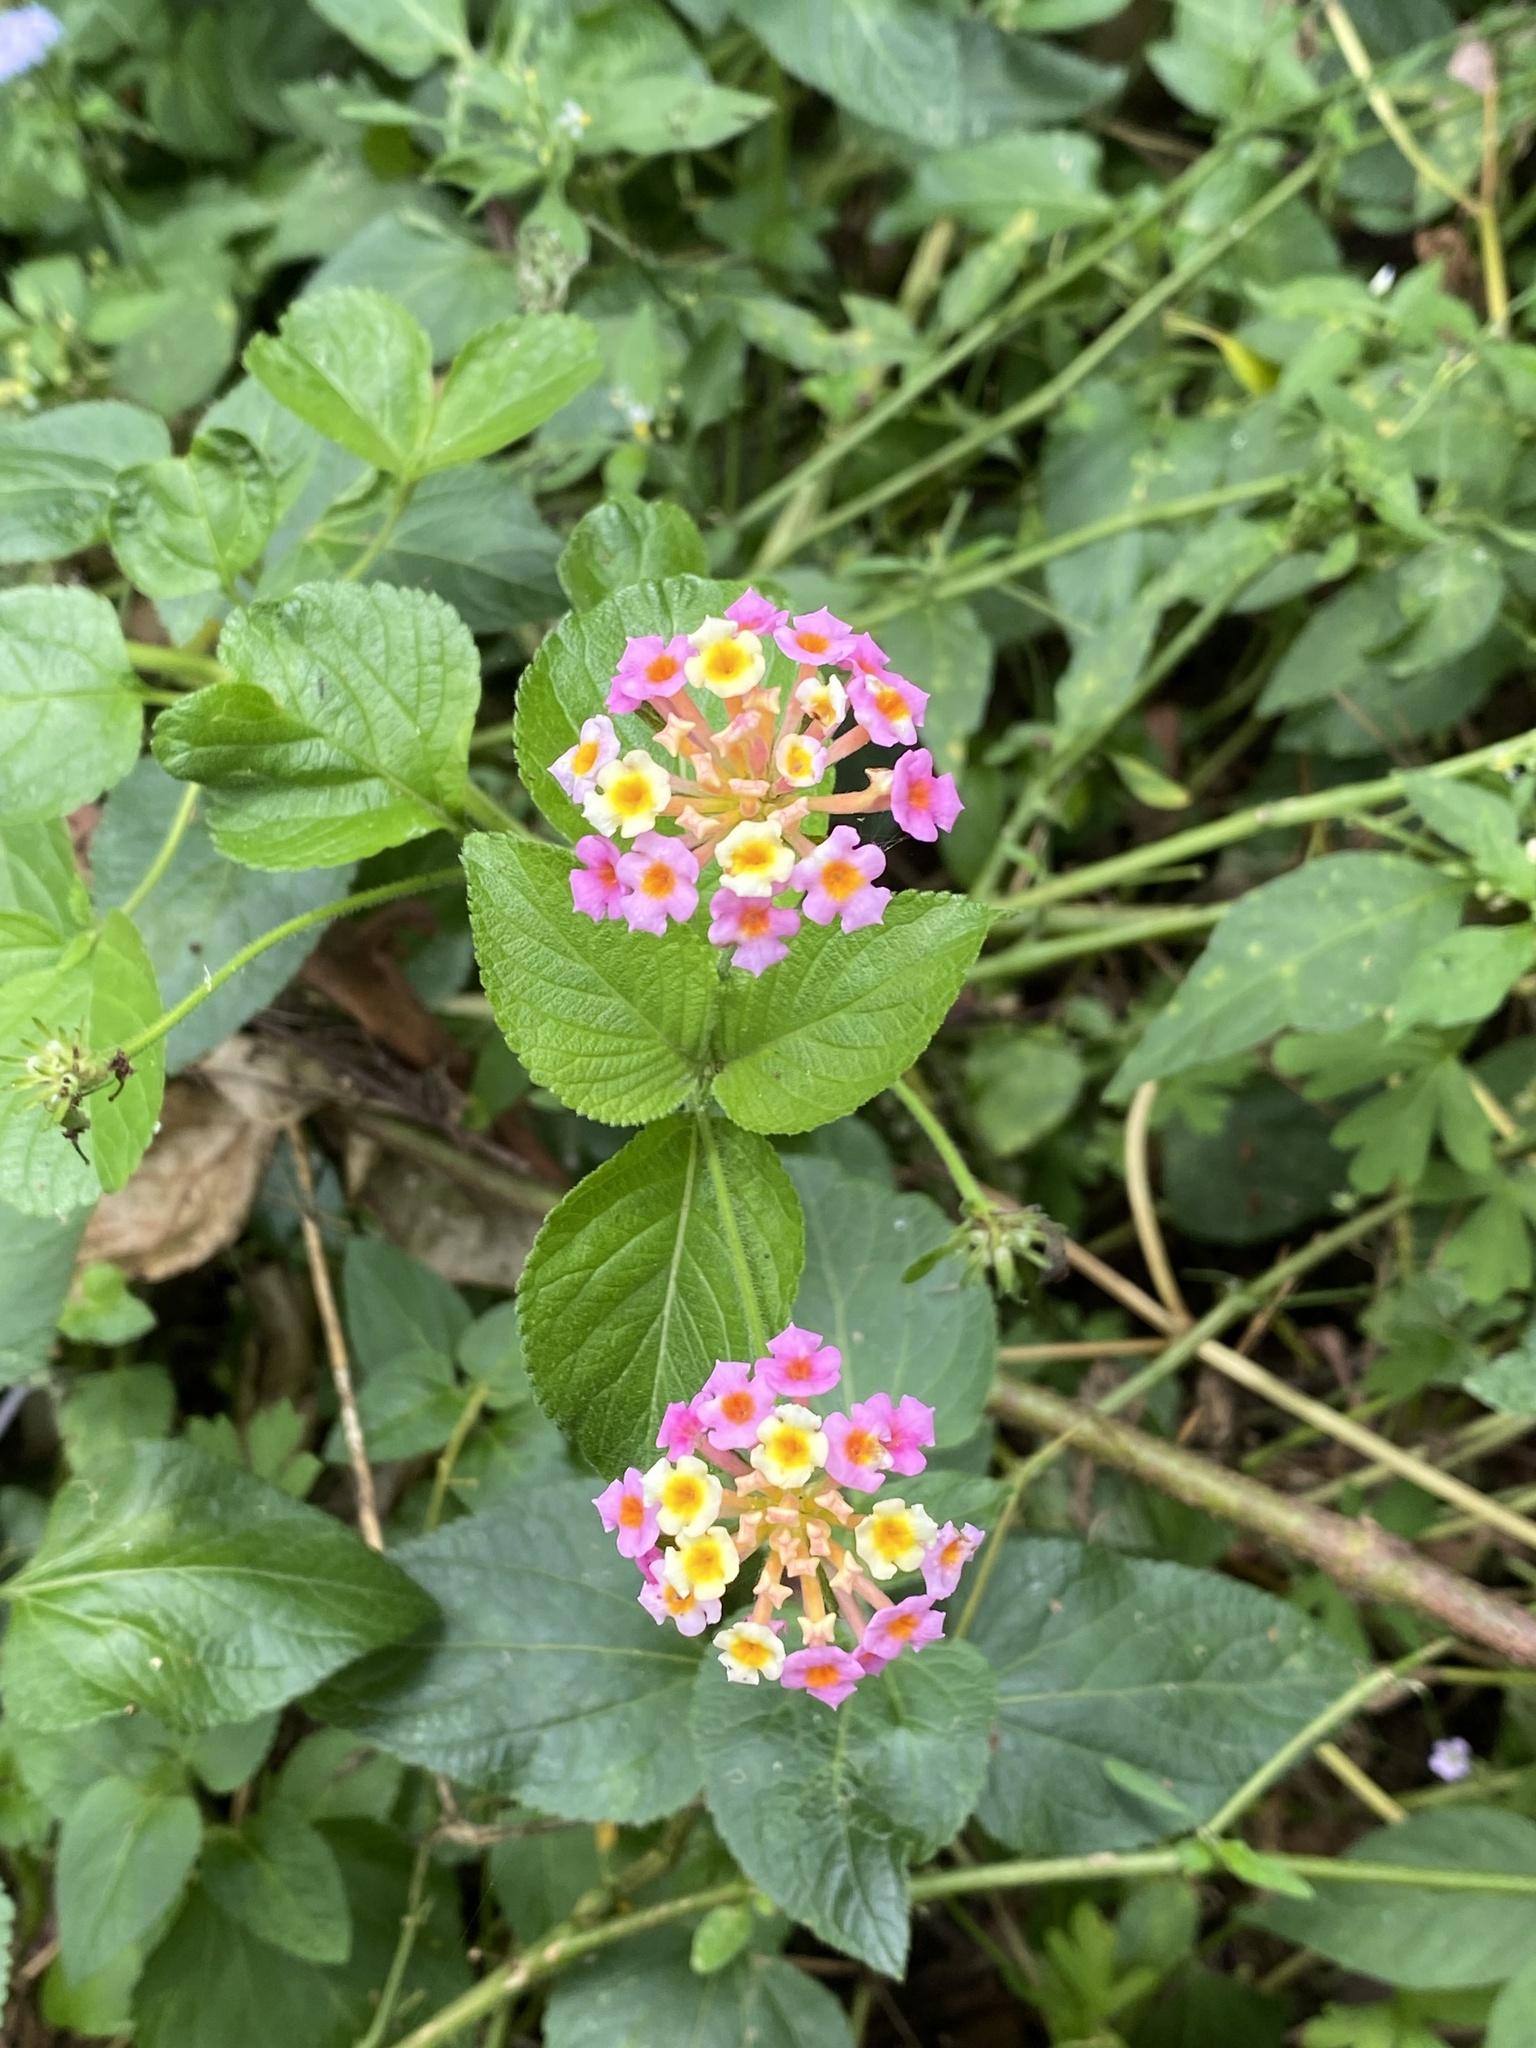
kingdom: Plantae
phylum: Tracheophyta
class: Magnoliopsida
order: Lamiales
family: Verbenaceae
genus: Lantana
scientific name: Lantana camara
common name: Lantana
